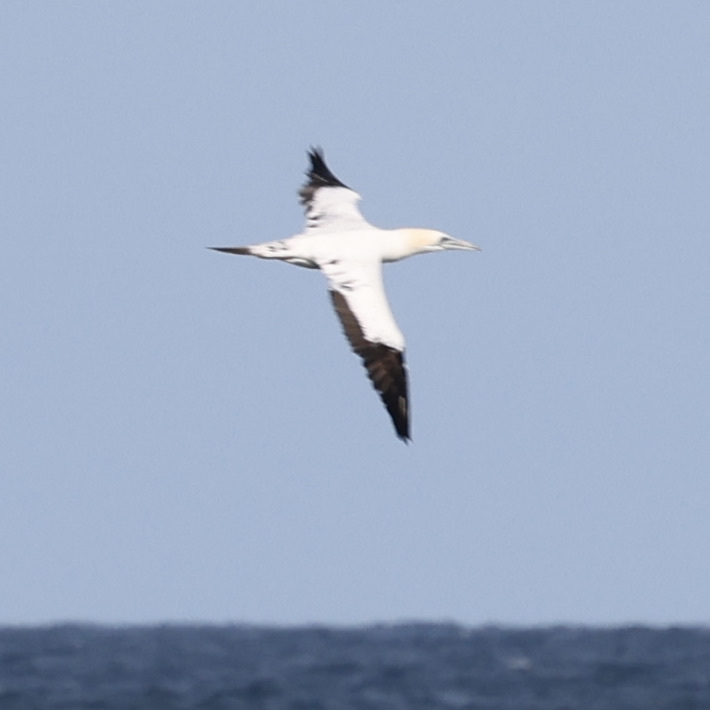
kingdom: Animalia
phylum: Chordata
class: Aves
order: Suliformes
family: Sulidae
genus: Morus
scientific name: Morus bassanus
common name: Northern gannet
